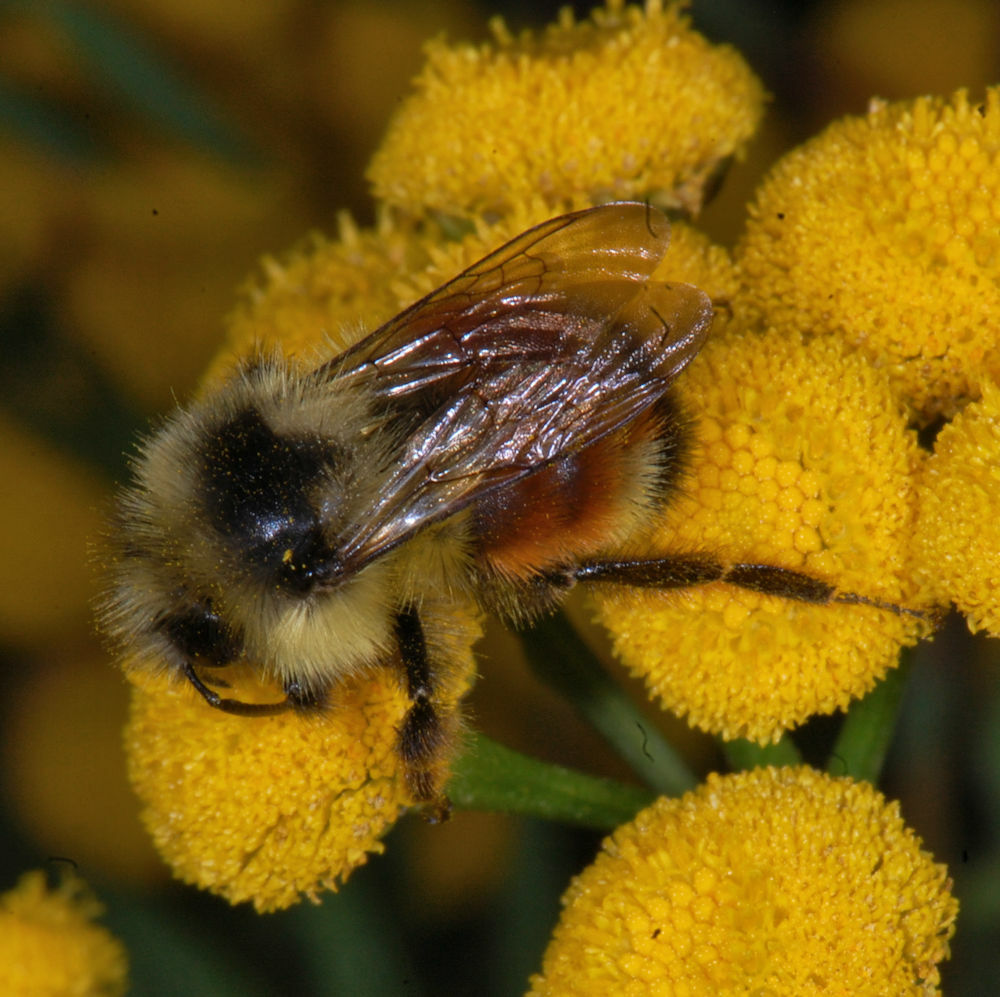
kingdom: Animalia
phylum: Arthropoda
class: Insecta
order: Hymenoptera
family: Apidae
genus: Bombus
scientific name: Bombus ternarius
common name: Tri-colored bumble bee
